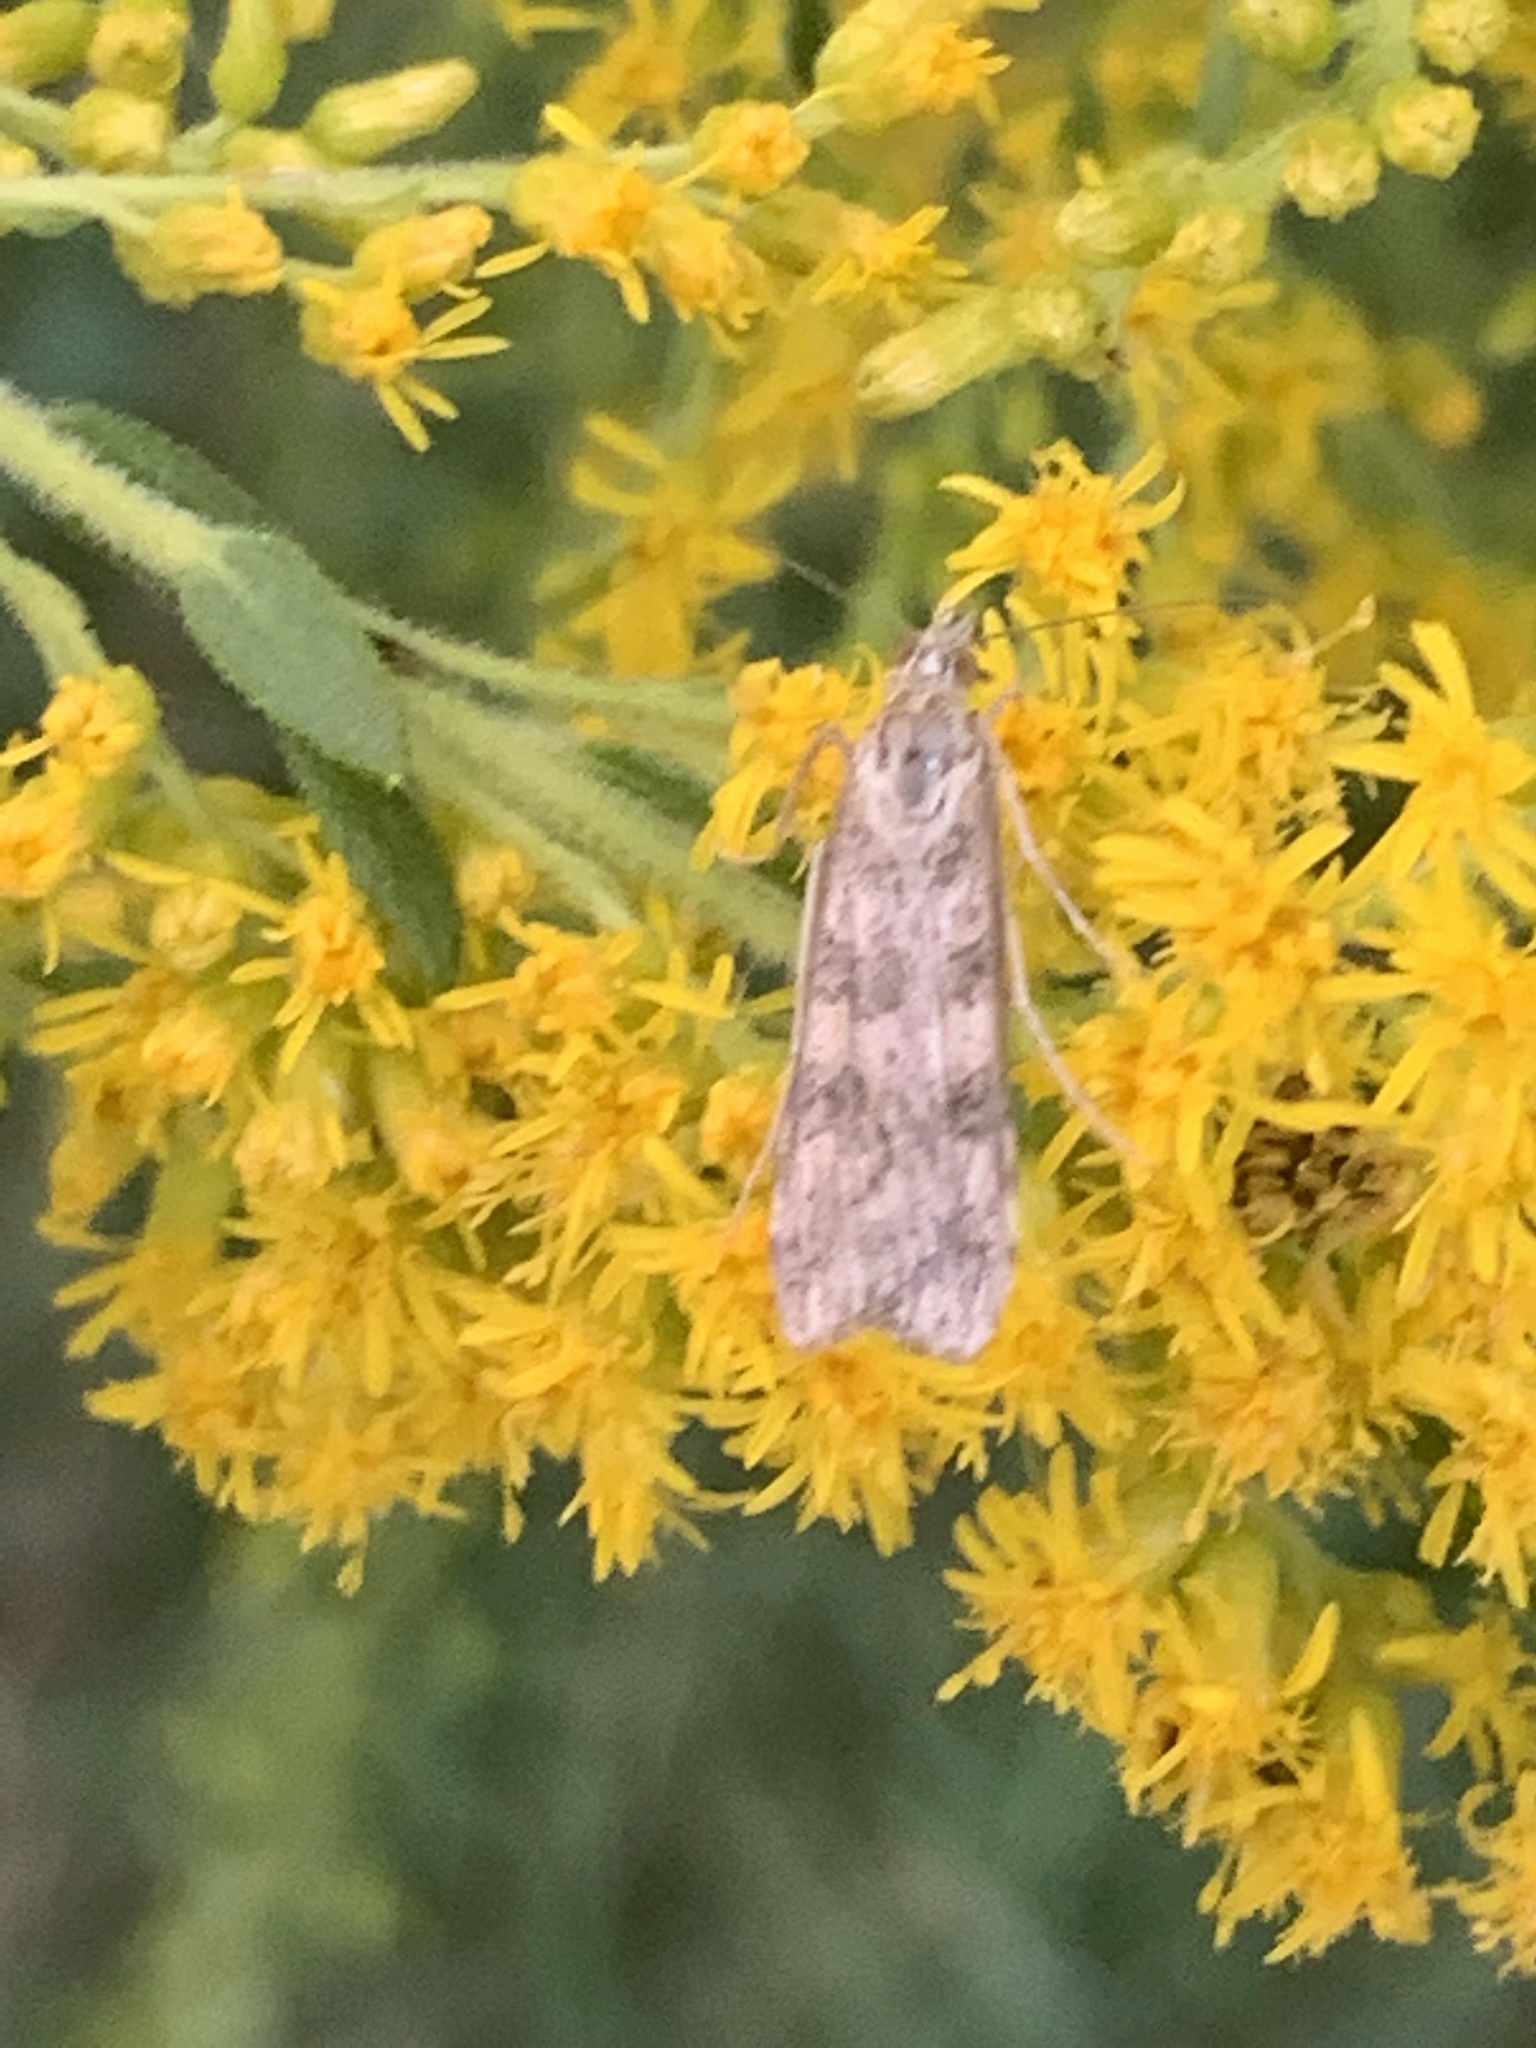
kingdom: Animalia
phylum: Arthropoda
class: Insecta
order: Lepidoptera
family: Crambidae
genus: Nomophila
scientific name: Nomophila nearctica
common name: American rush veneer
